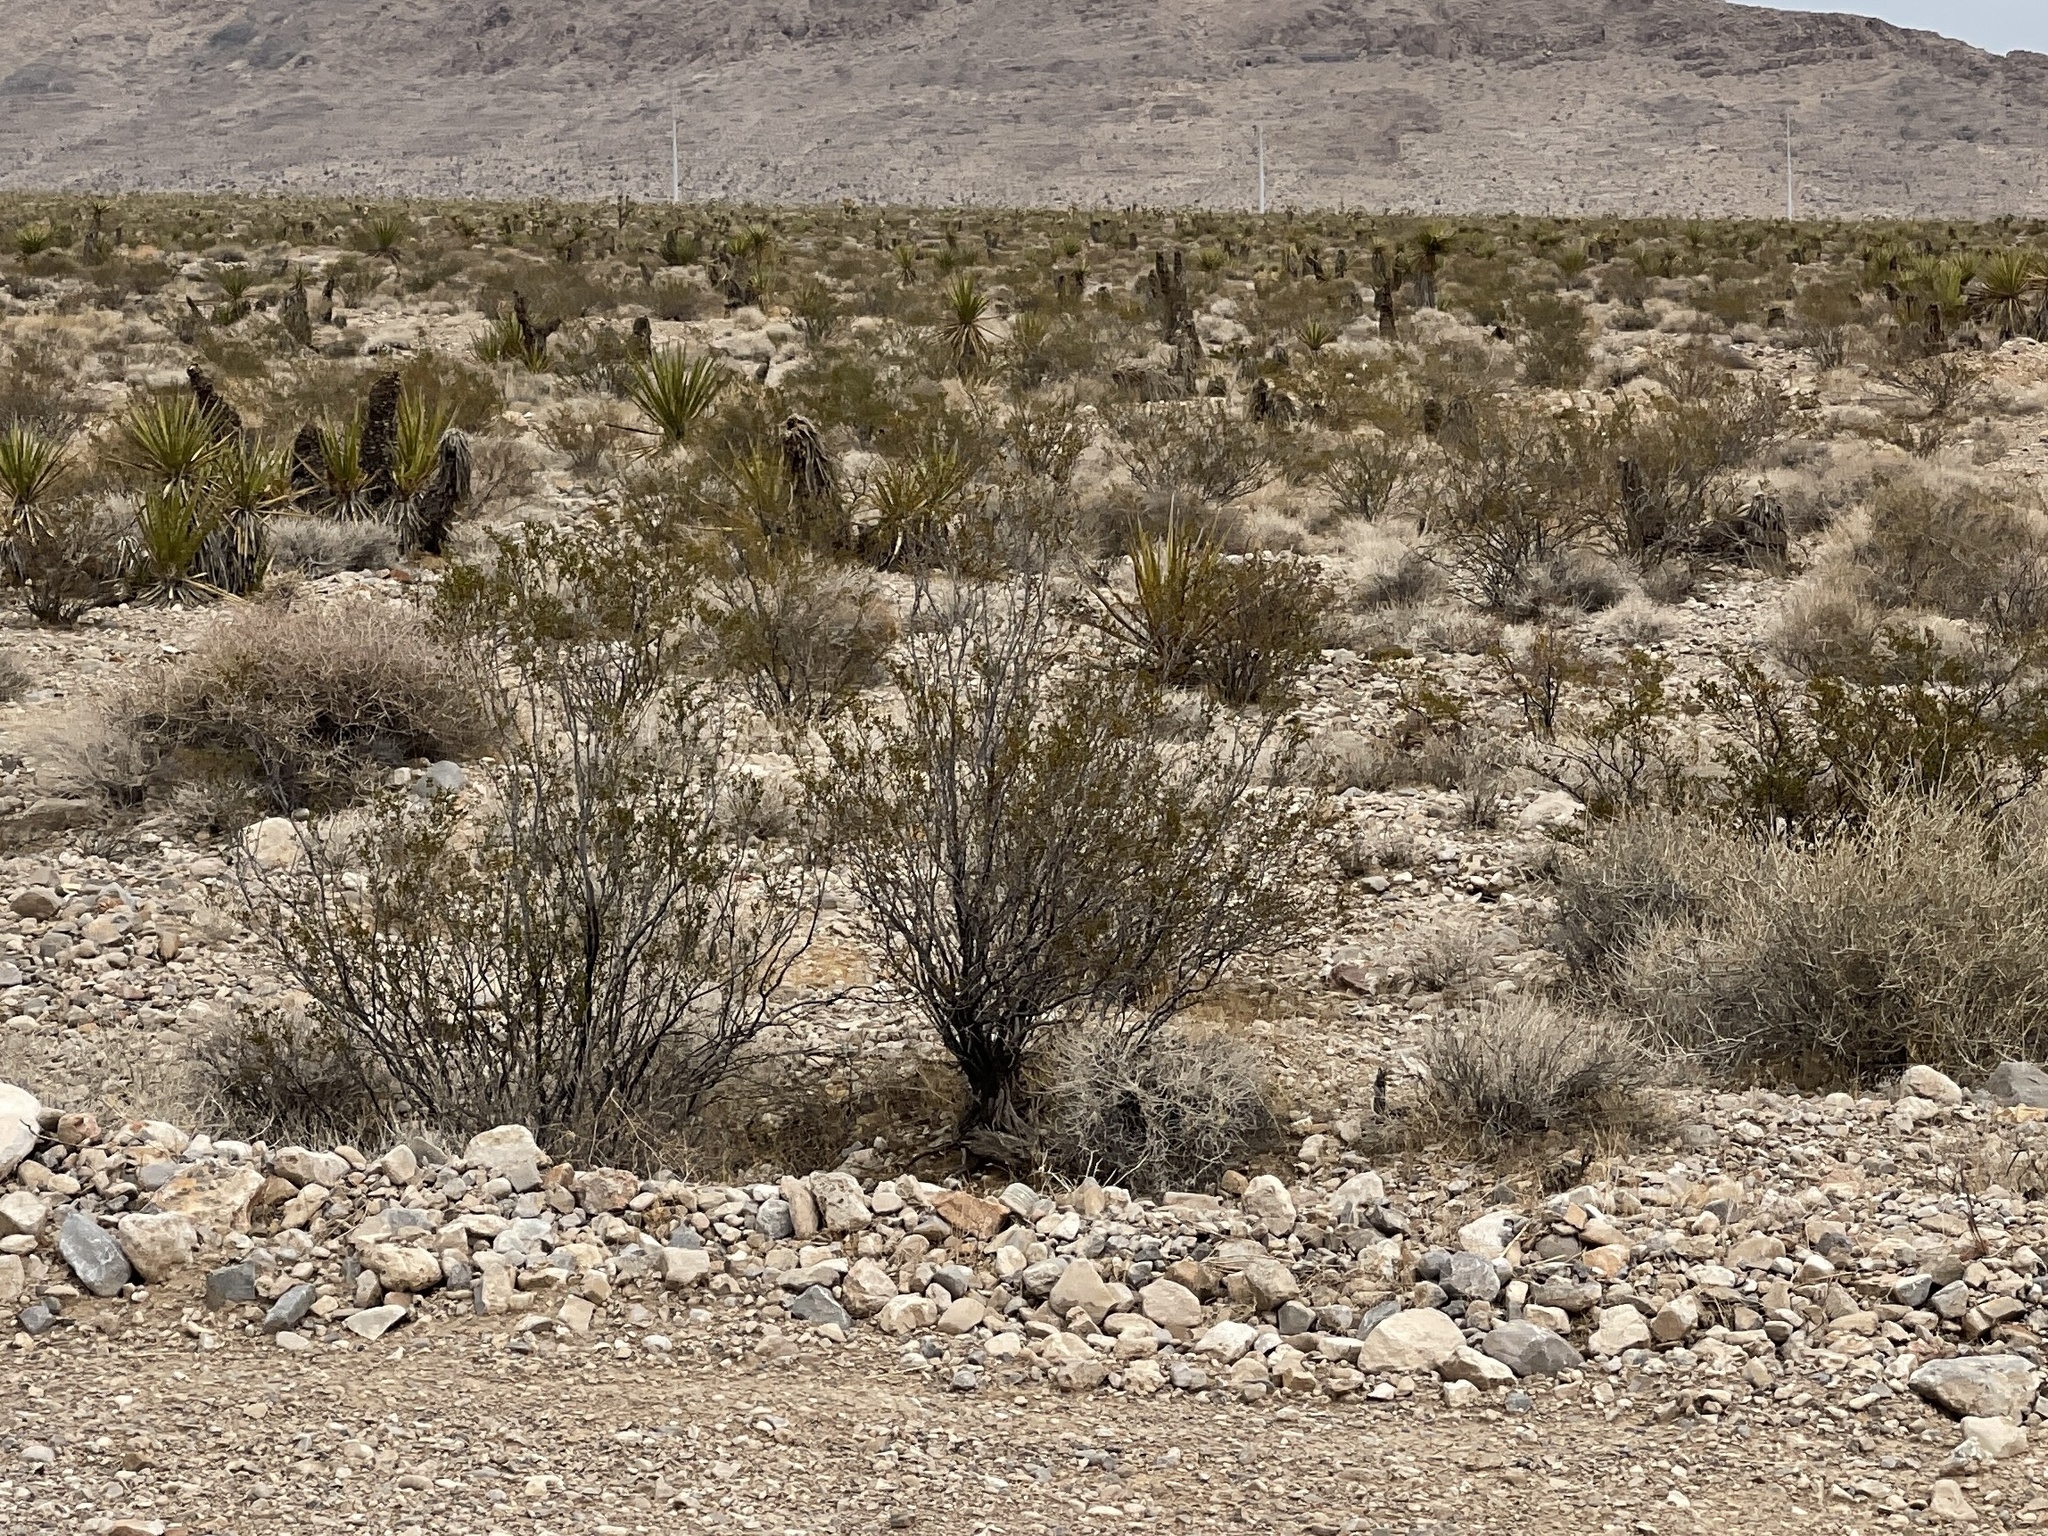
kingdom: Plantae
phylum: Tracheophyta
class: Magnoliopsida
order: Zygophyllales
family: Zygophyllaceae
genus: Larrea
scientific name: Larrea tridentata
